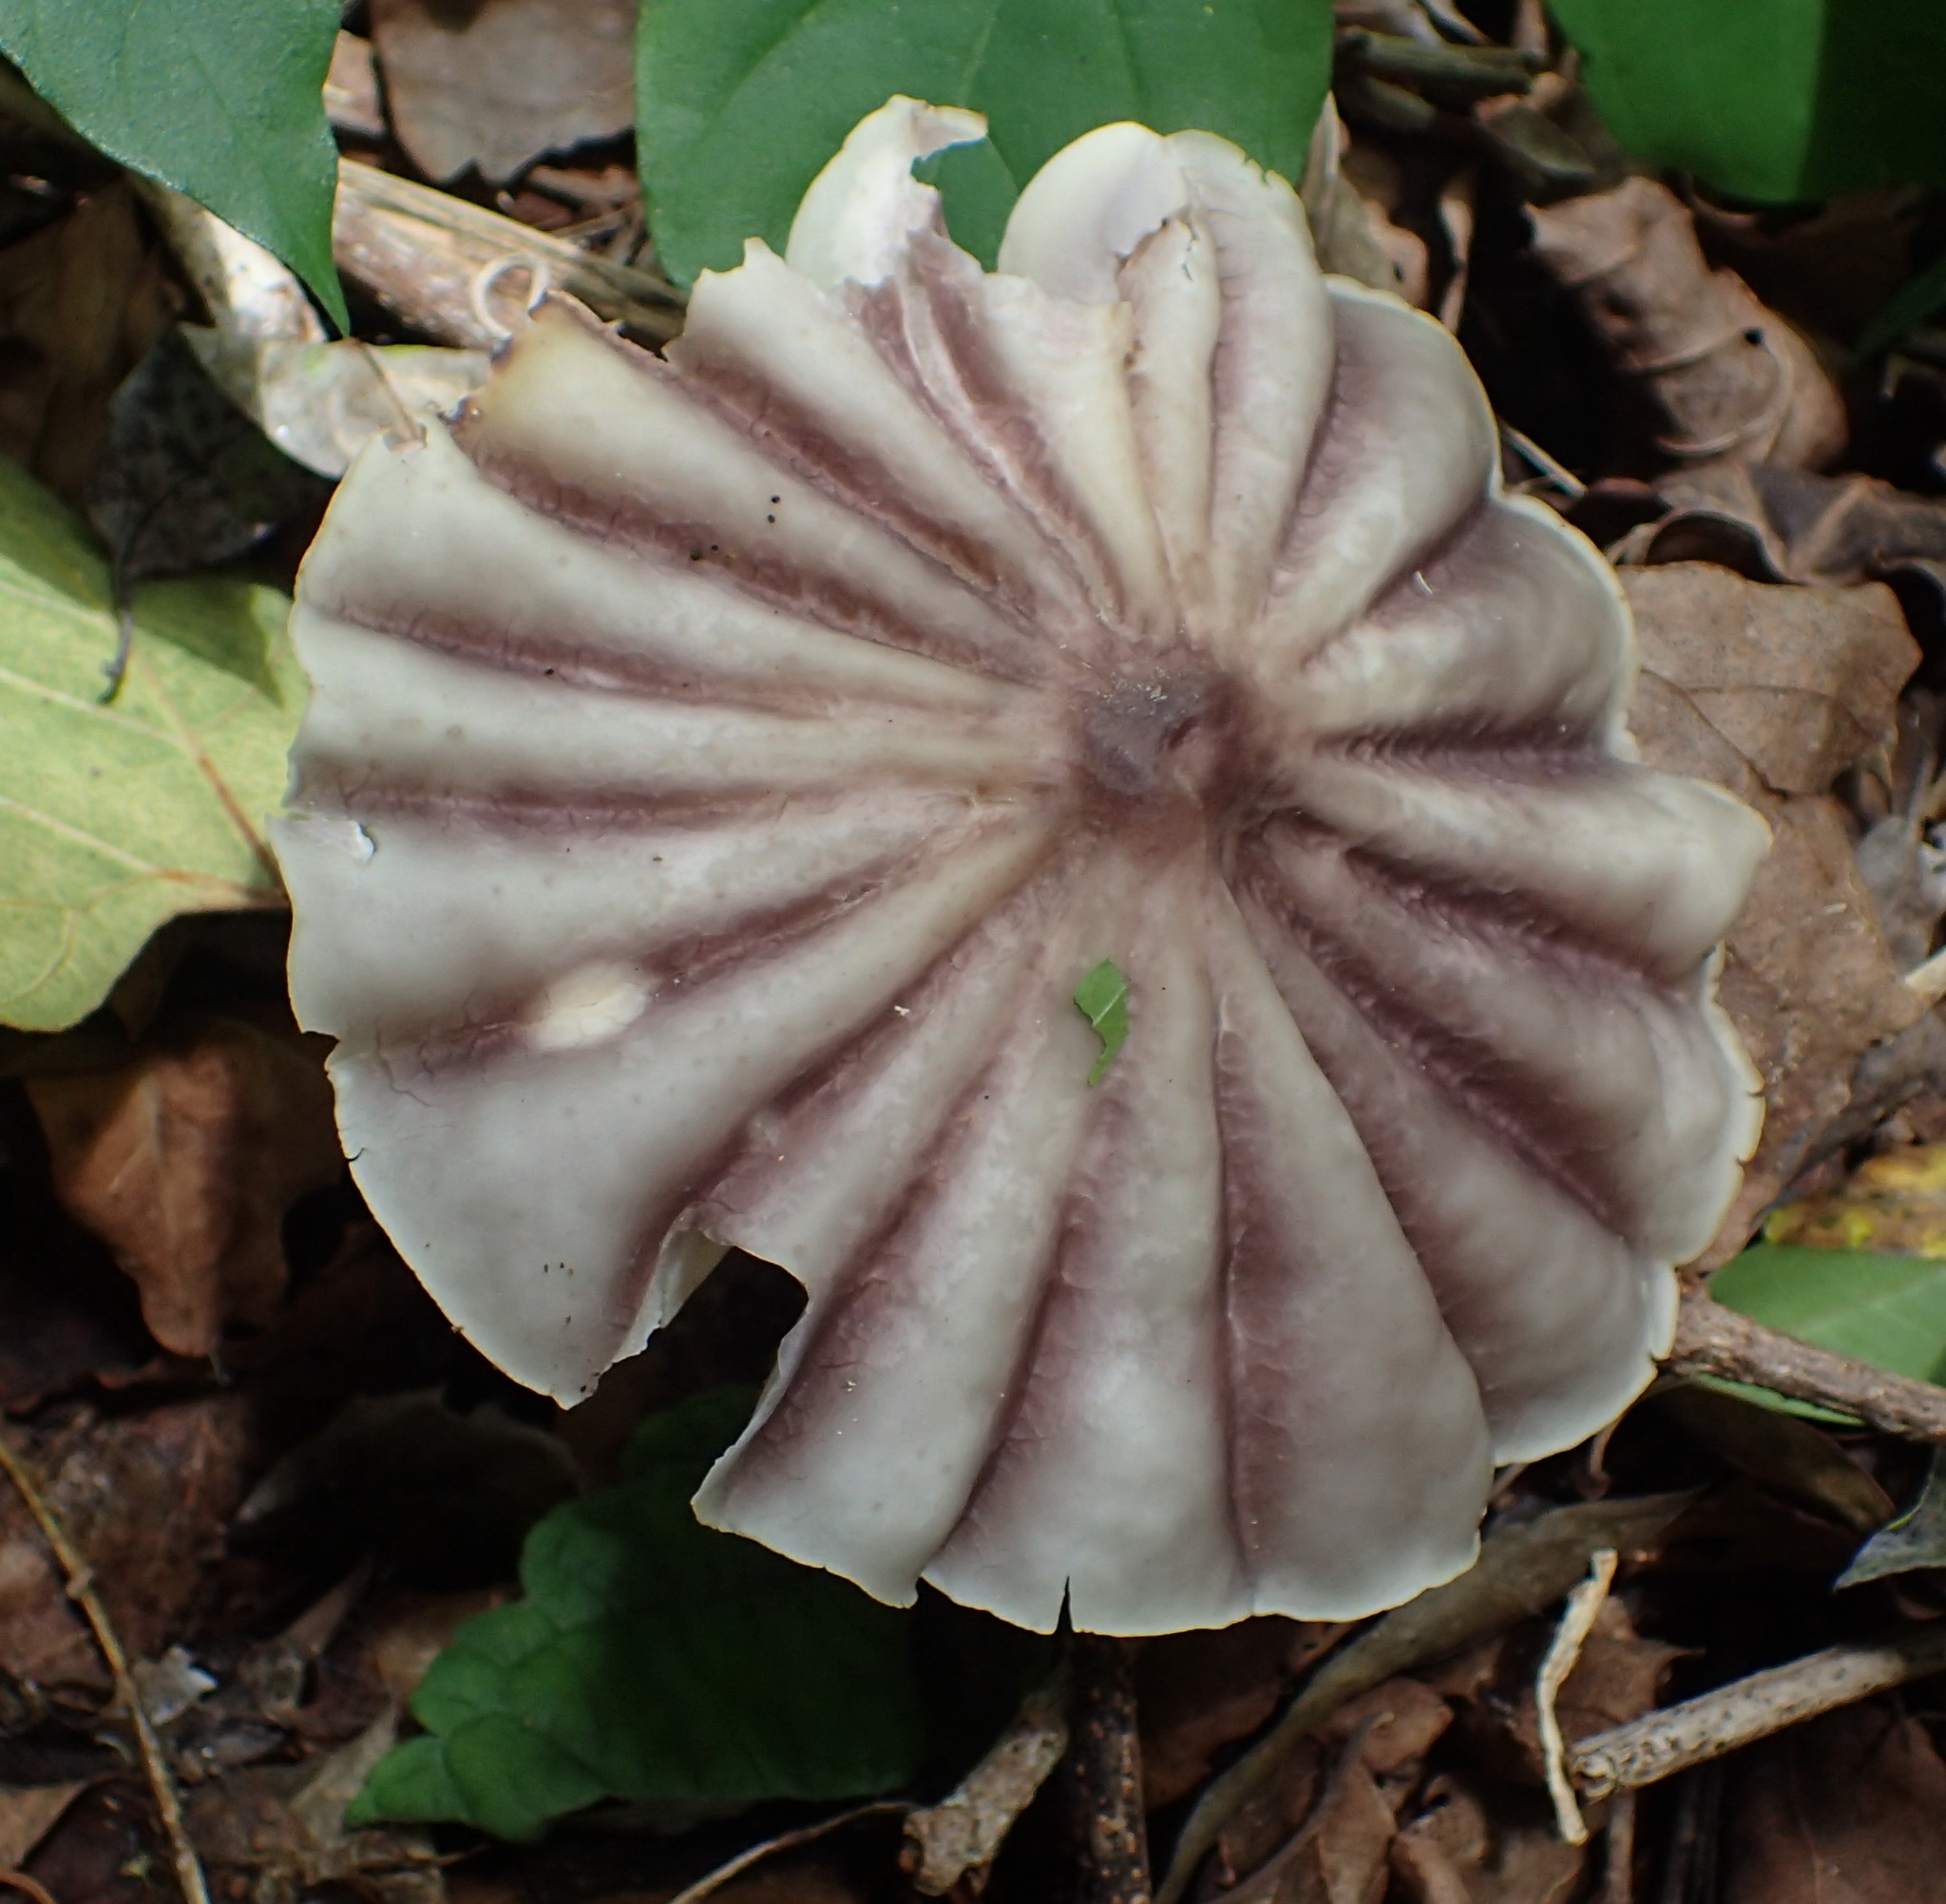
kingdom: Fungi
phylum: Basidiomycota
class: Agaricomycetes
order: Agaricales
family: Marasmiaceae
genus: Marasmius
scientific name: Marasmius bekolacongoli
